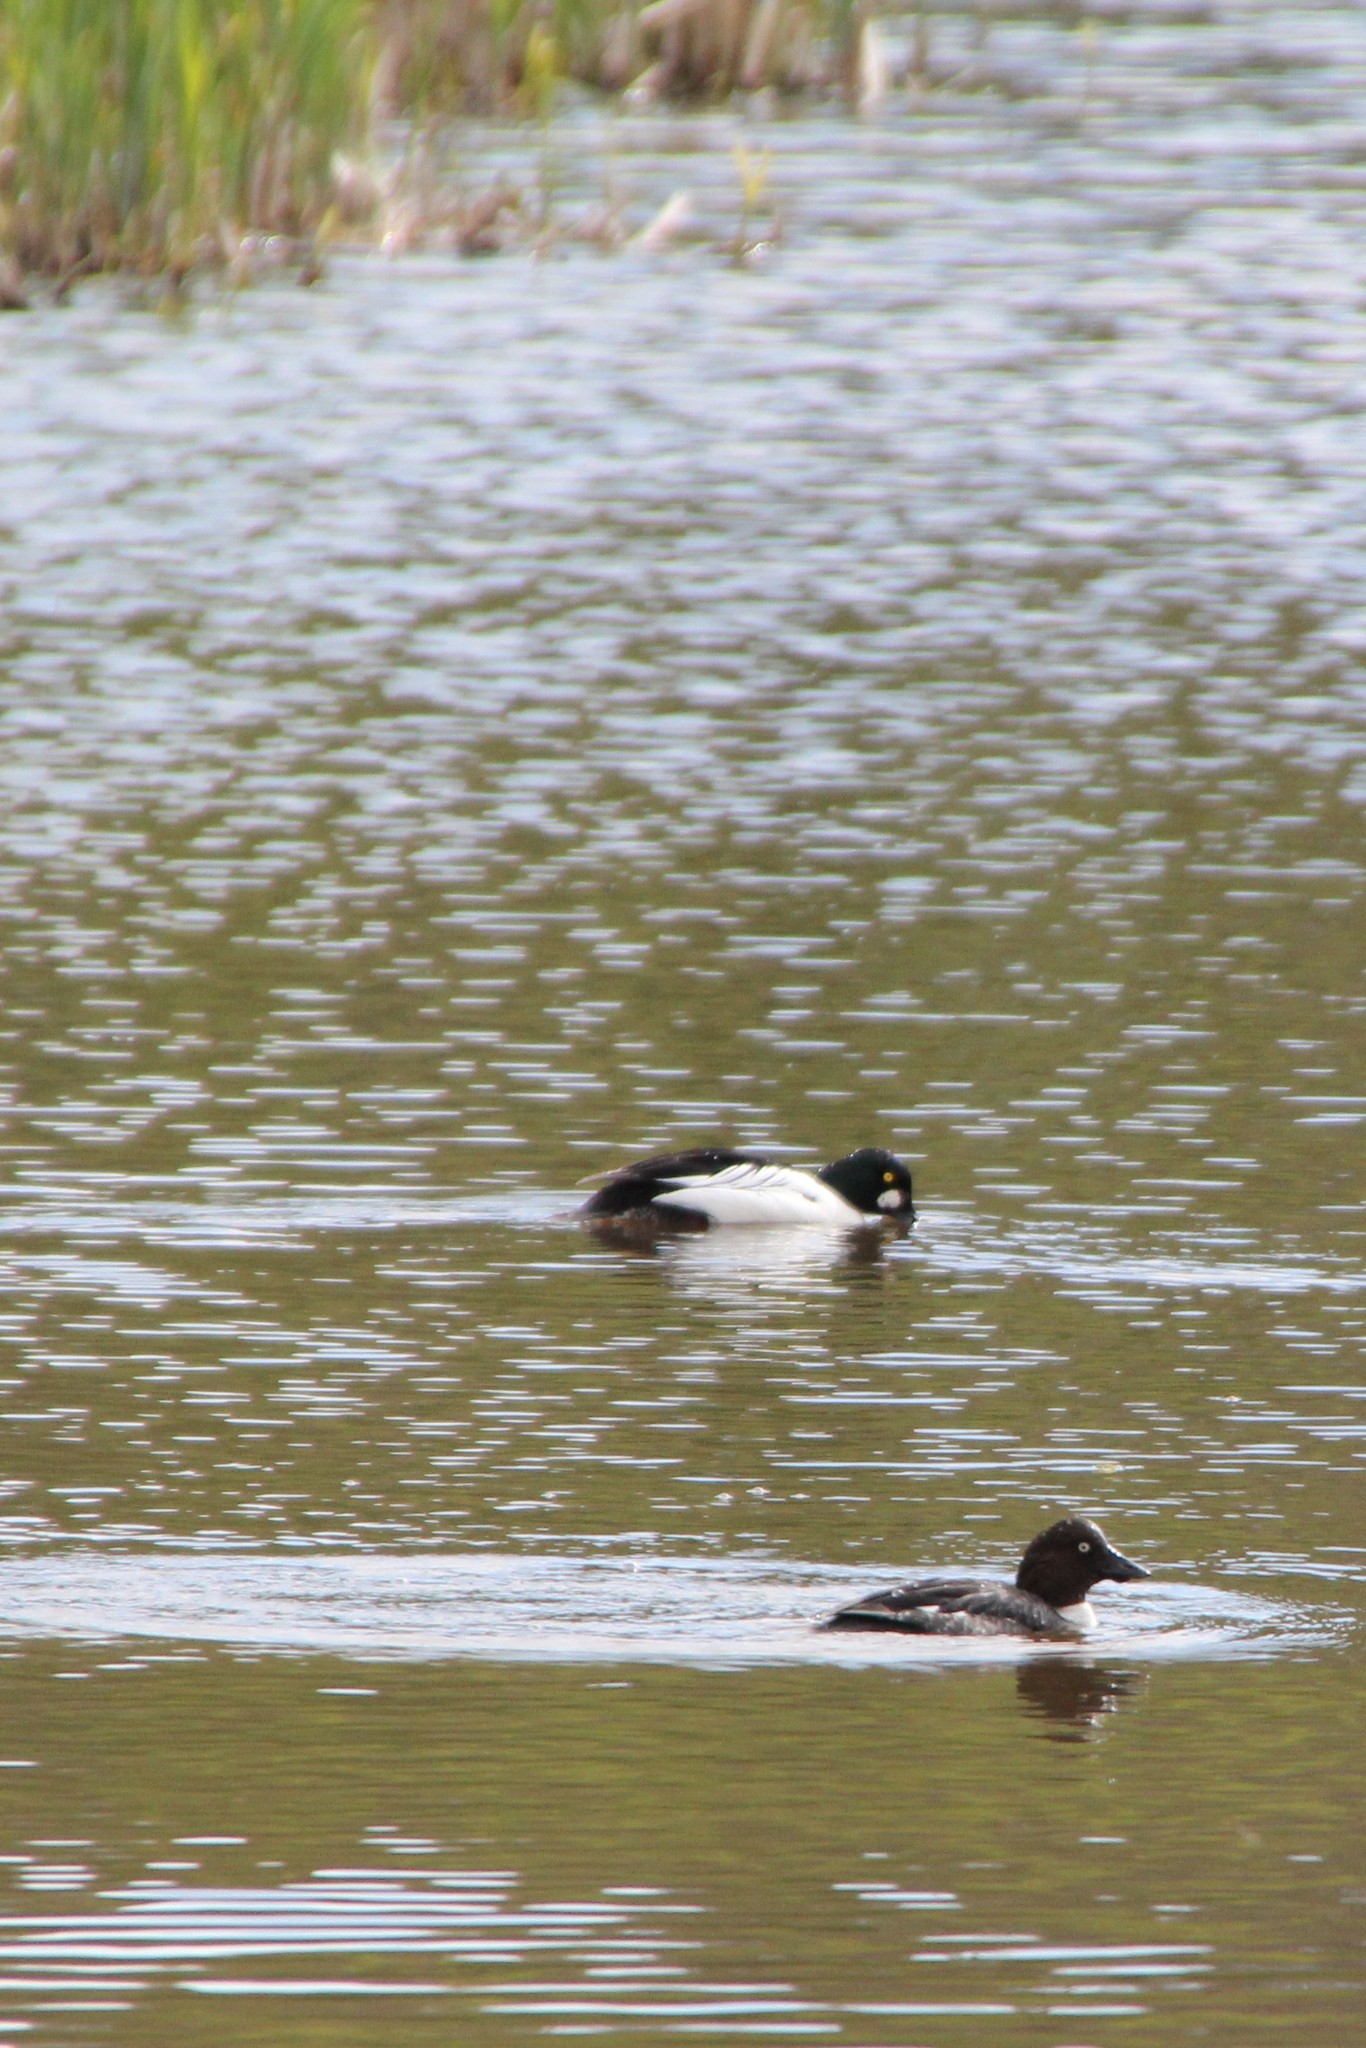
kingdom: Animalia
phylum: Chordata
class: Aves
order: Anseriformes
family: Anatidae
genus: Bucephala
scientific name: Bucephala clangula
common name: Common goldeneye
